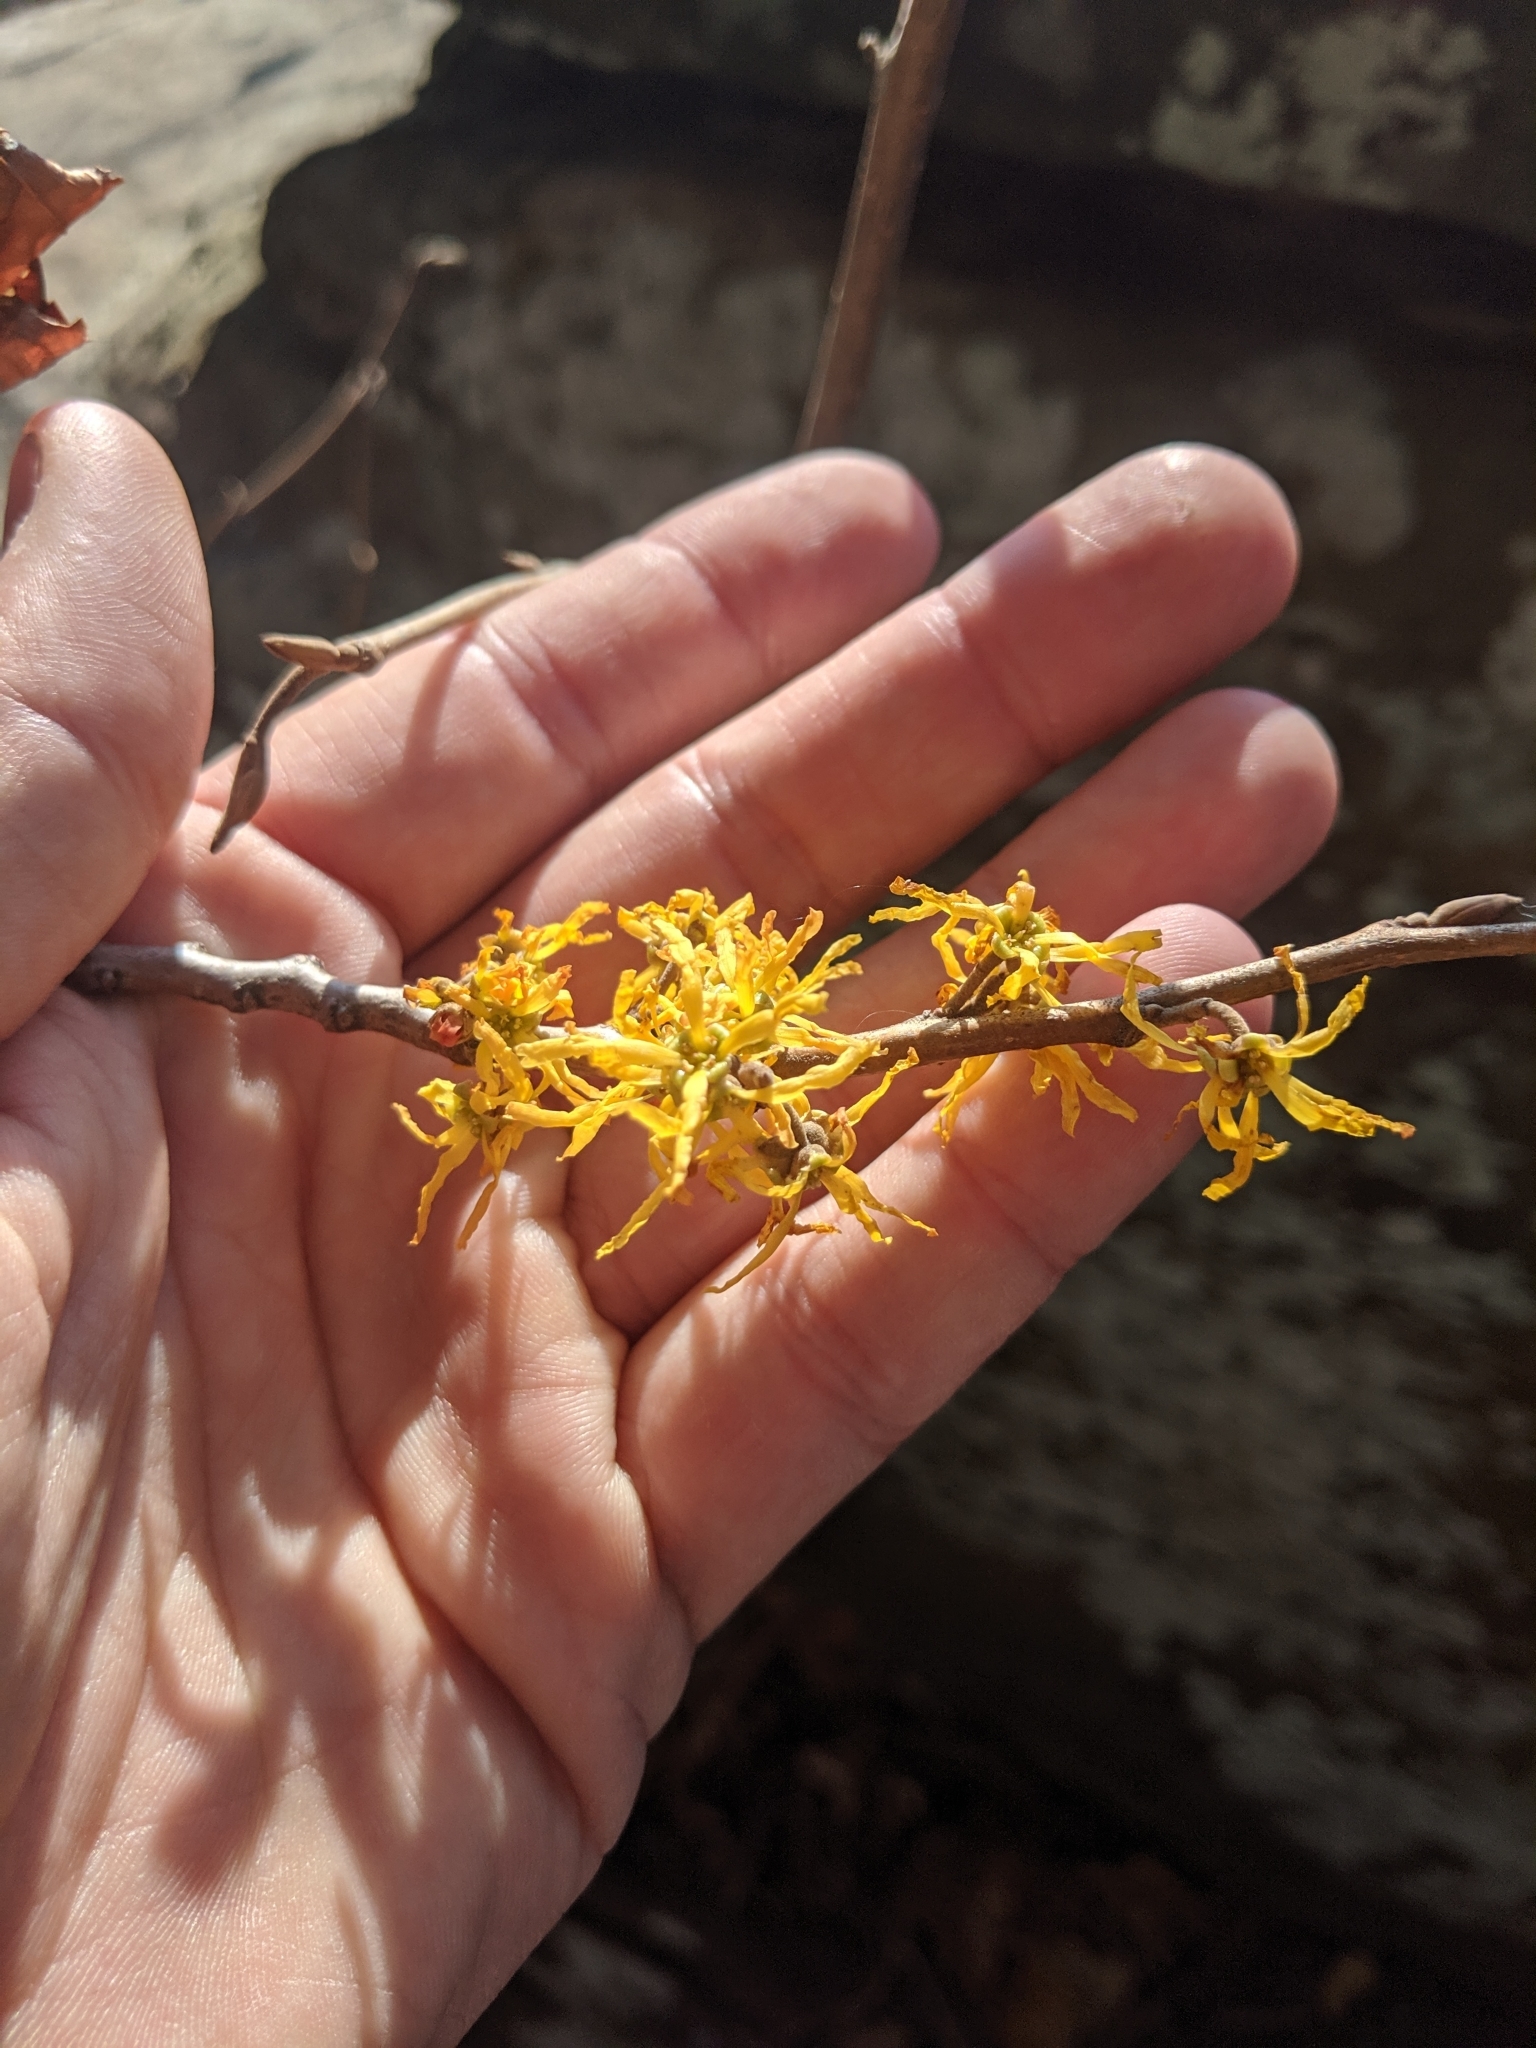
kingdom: Plantae
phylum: Tracheophyta
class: Magnoliopsida
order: Saxifragales
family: Hamamelidaceae
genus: Hamamelis
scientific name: Hamamelis virginiana
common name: Witch-hazel
